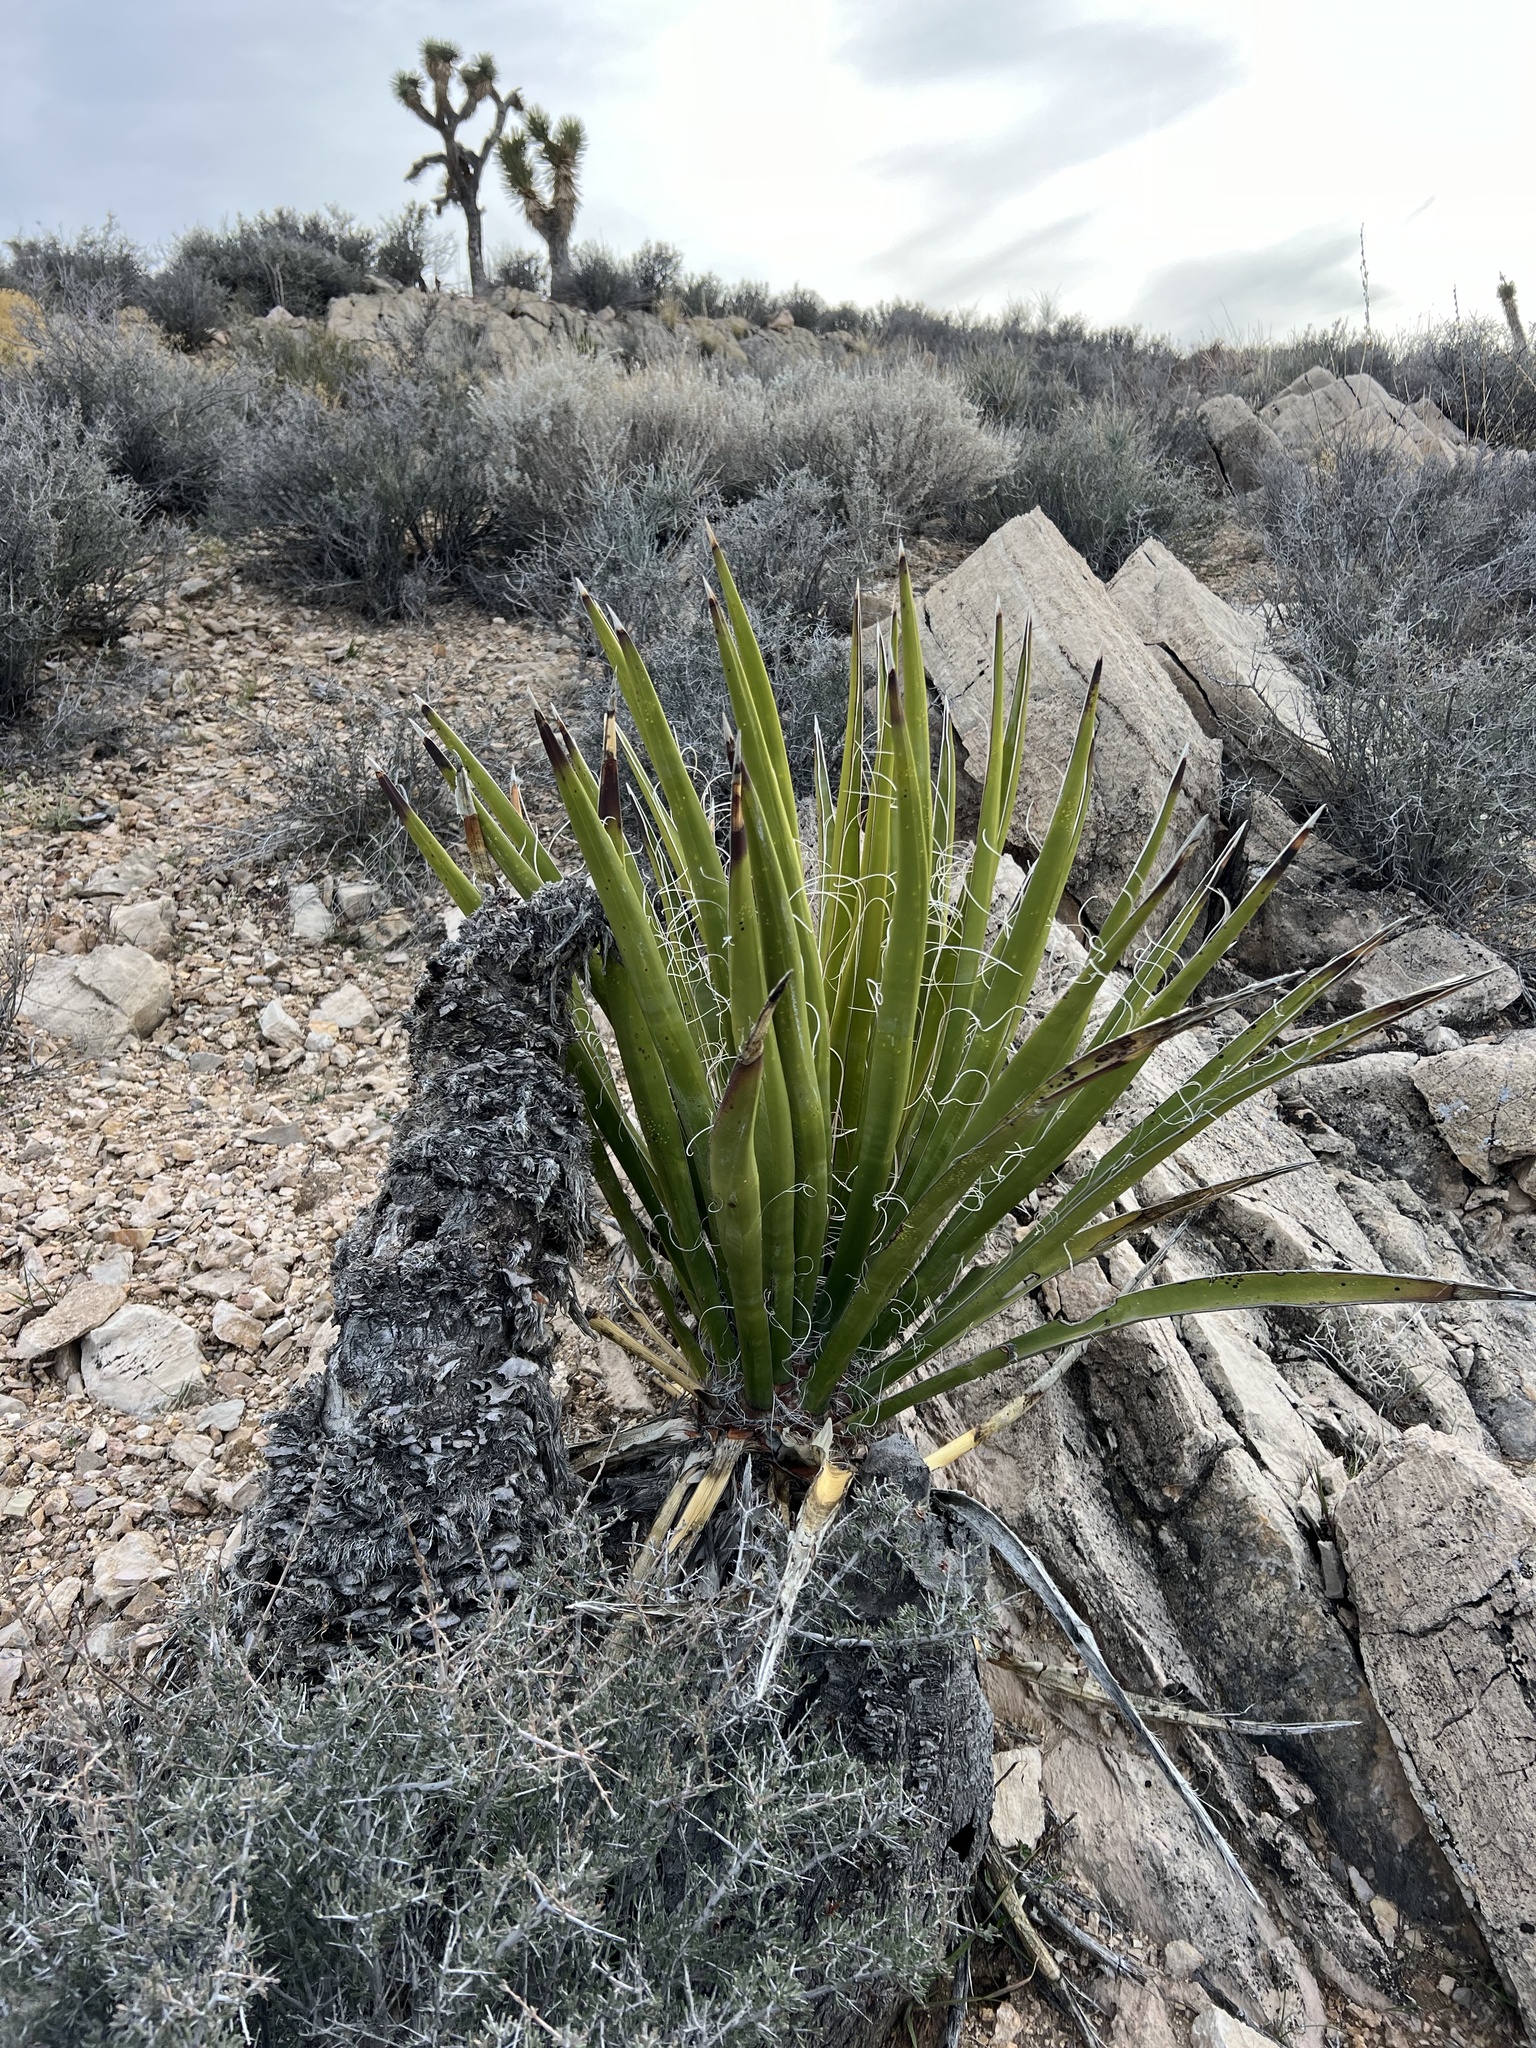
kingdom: Plantae
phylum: Tracheophyta
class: Liliopsida
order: Asparagales
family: Asparagaceae
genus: Yucca
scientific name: Yucca schidigera
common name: Mojave yucca
